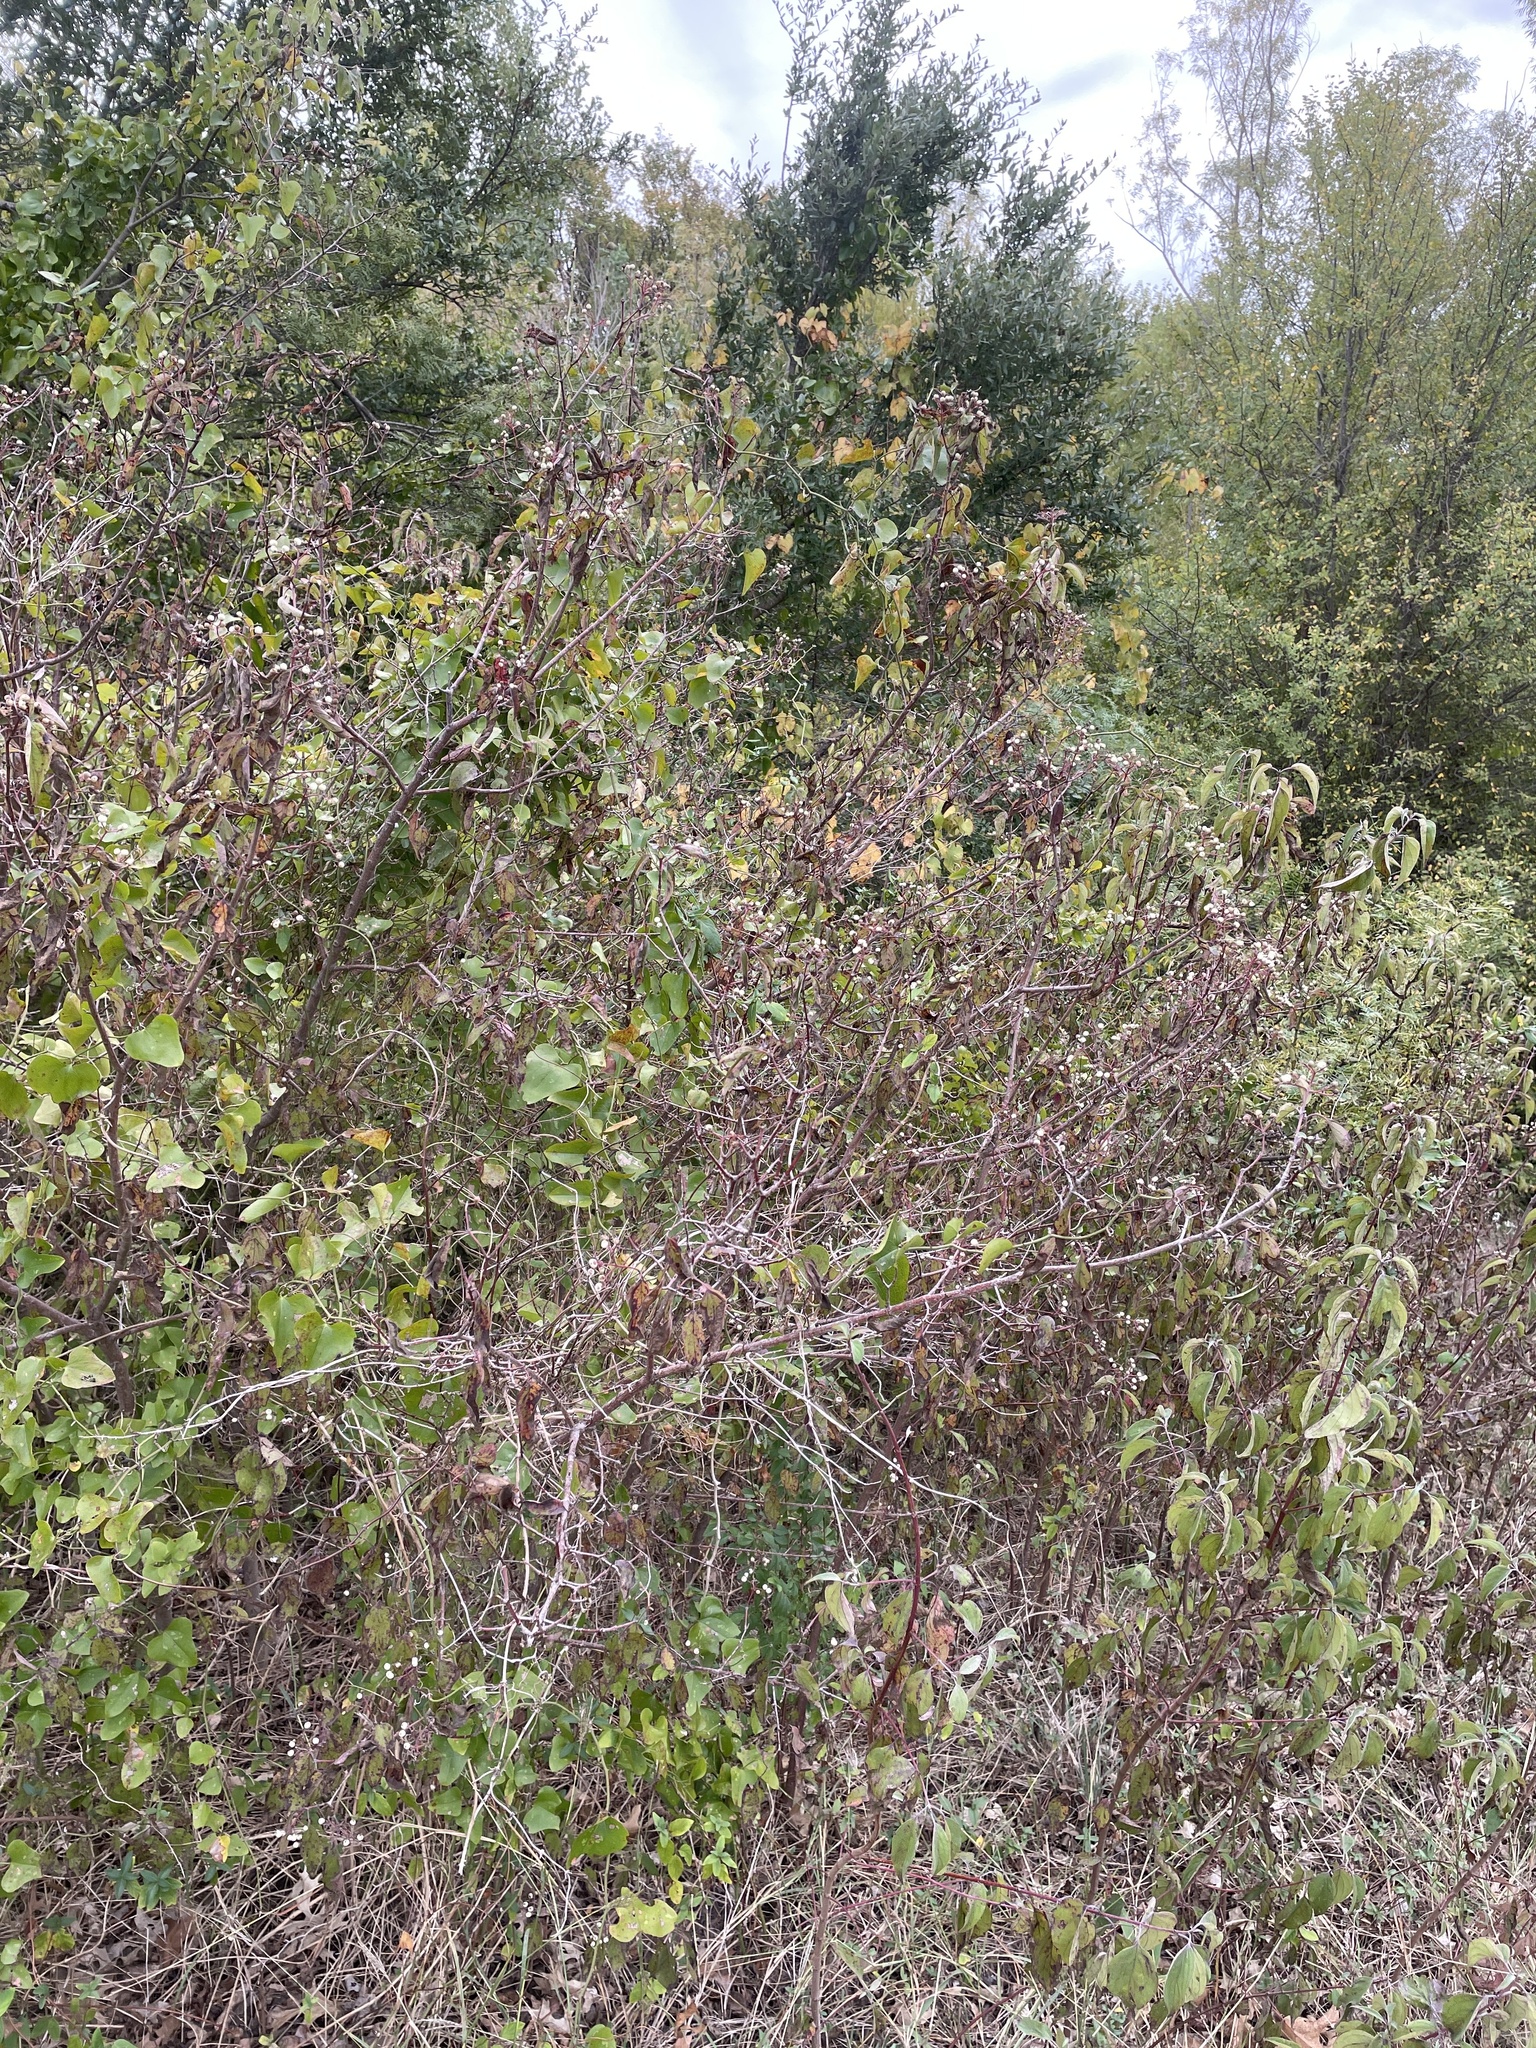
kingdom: Plantae
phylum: Tracheophyta
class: Magnoliopsida
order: Cornales
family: Cornaceae
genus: Cornus
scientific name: Cornus drummondii
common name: Rough-leaf dogwood
